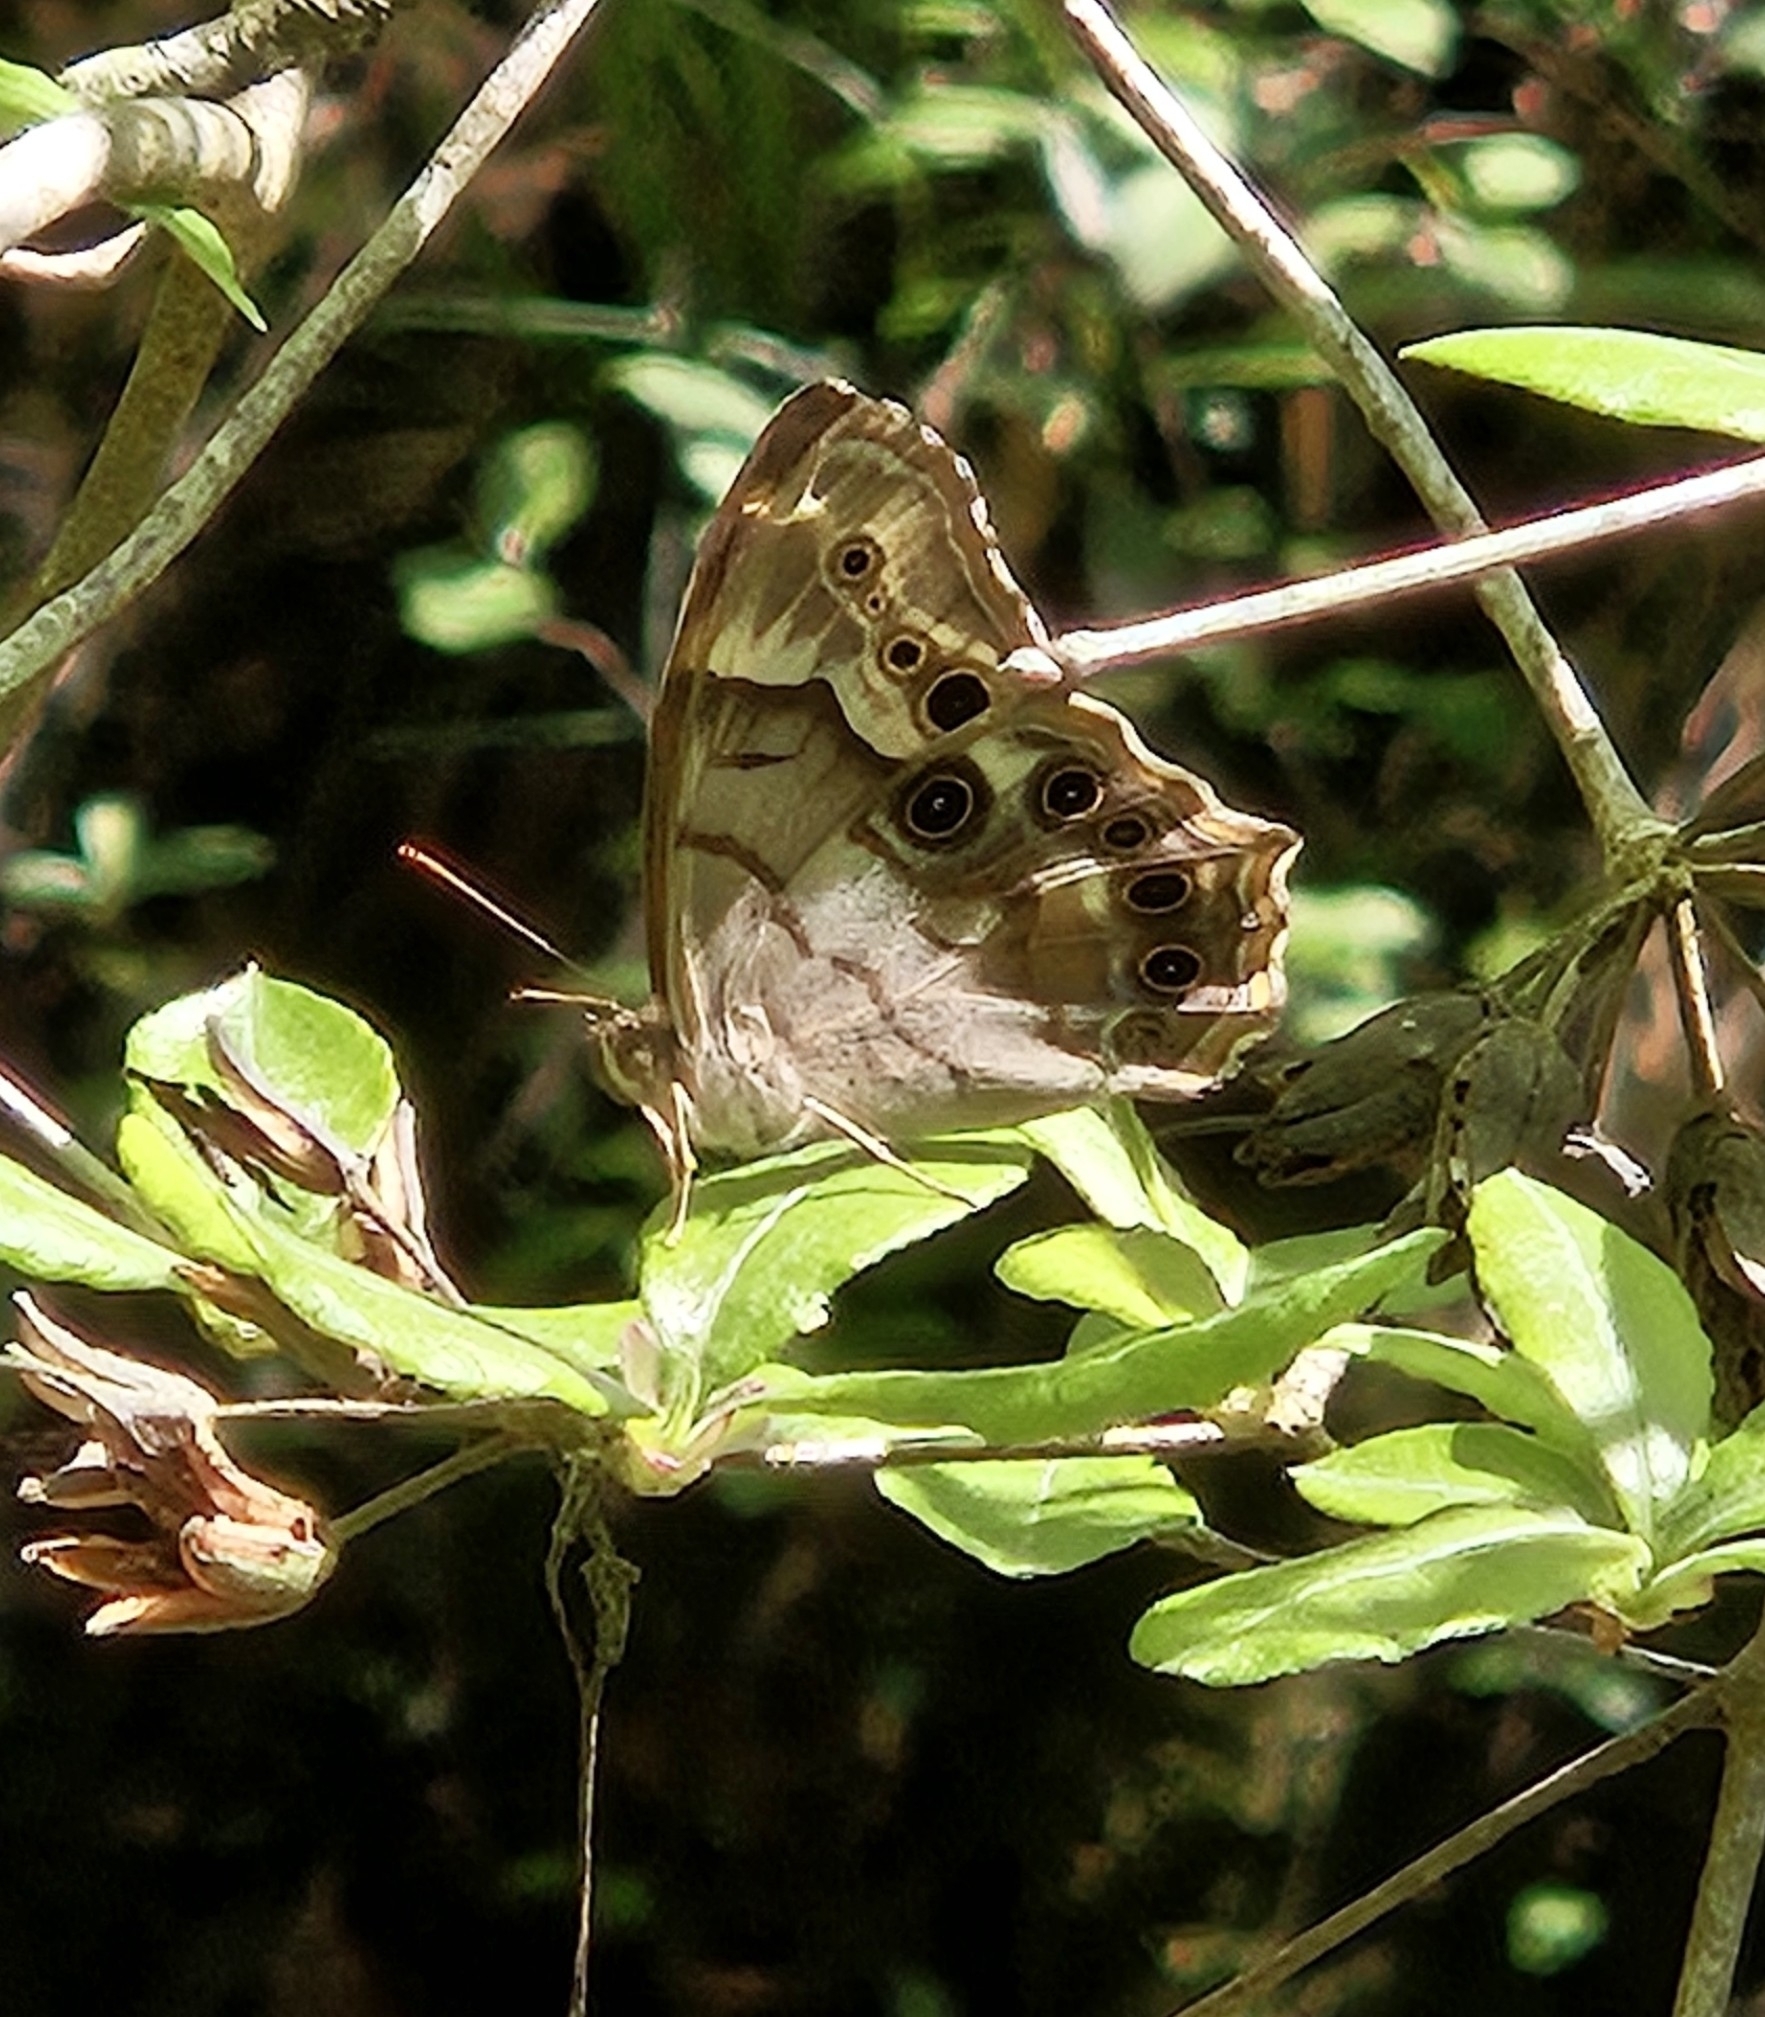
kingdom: Animalia
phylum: Arthropoda
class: Insecta
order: Lepidoptera
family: Nymphalidae
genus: Enodia
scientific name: Enodia portlandia
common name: Southern pearly-eye
